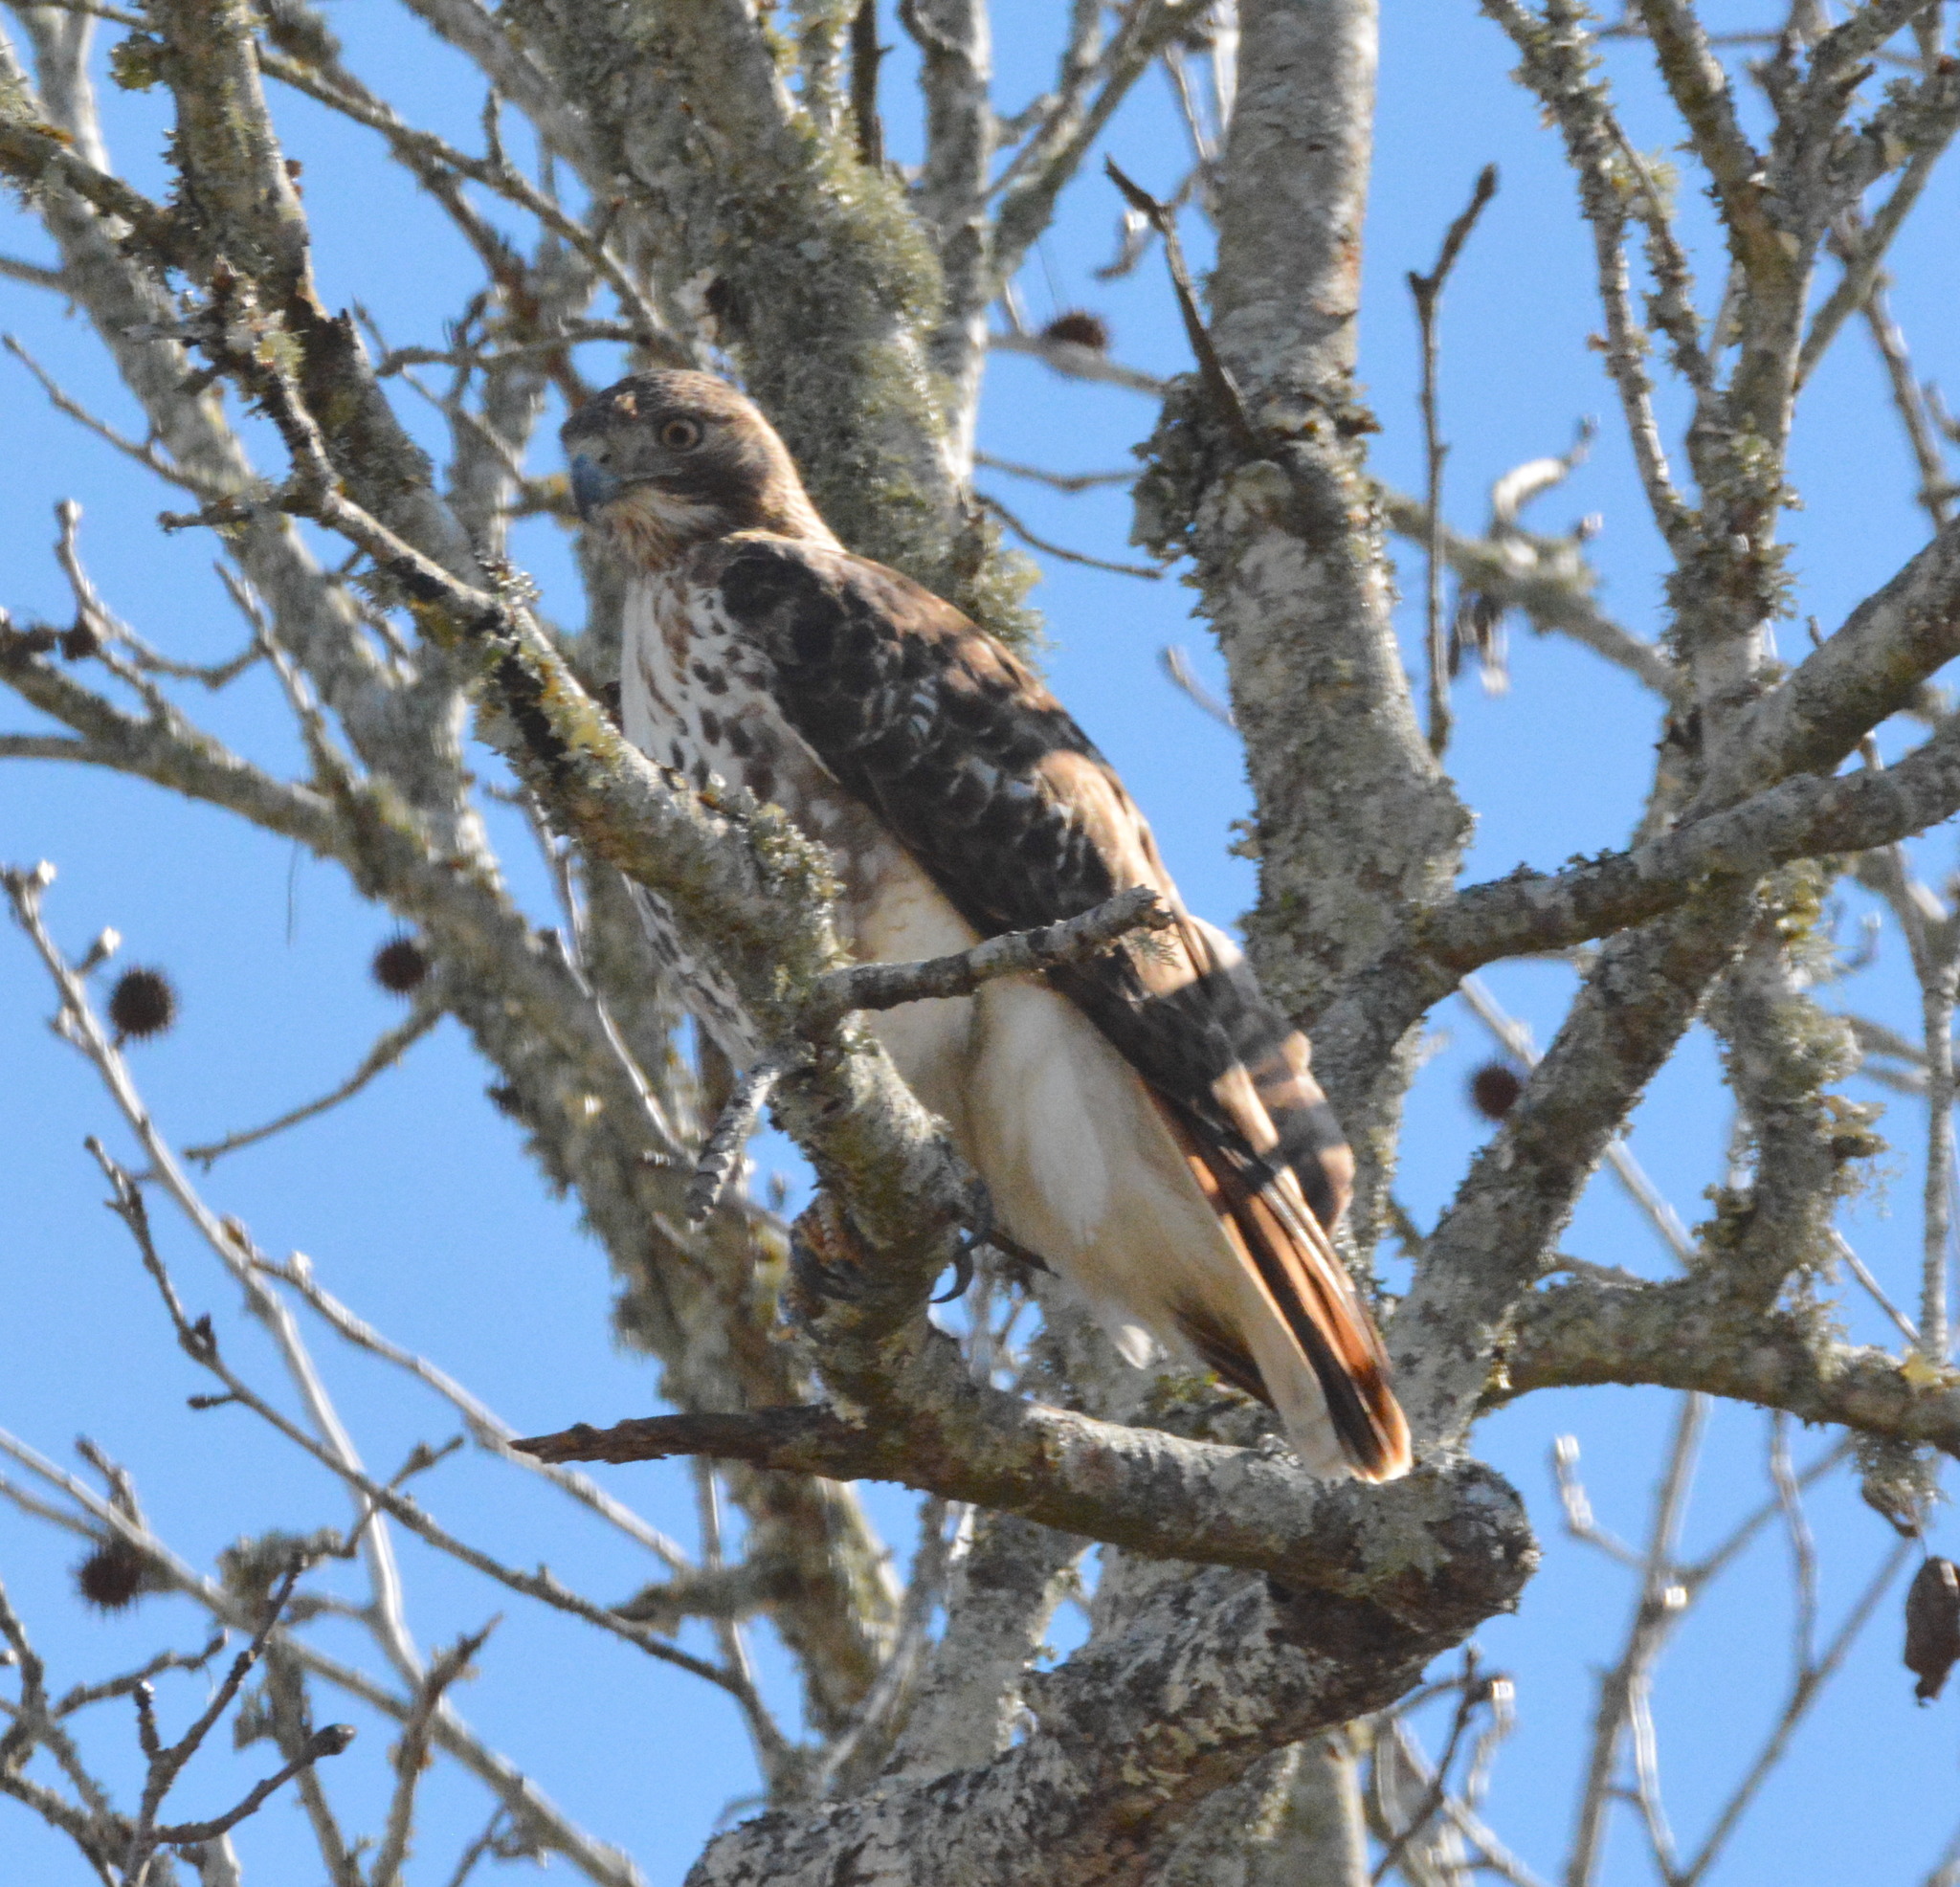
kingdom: Animalia
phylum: Chordata
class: Aves
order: Accipitriformes
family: Accipitridae
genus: Buteo
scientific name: Buteo jamaicensis
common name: Red-tailed hawk
